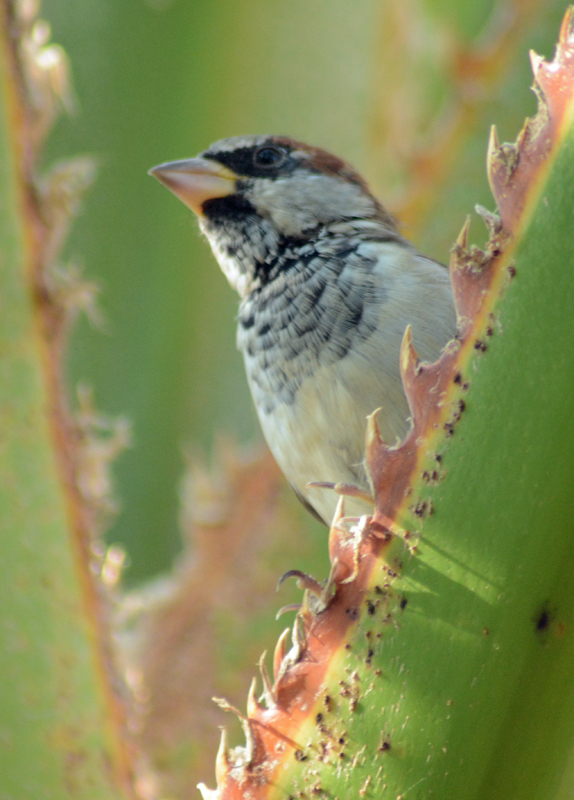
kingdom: Animalia
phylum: Chordata
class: Aves
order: Passeriformes
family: Passeridae
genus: Passer
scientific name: Passer domesticus
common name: House sparrow
